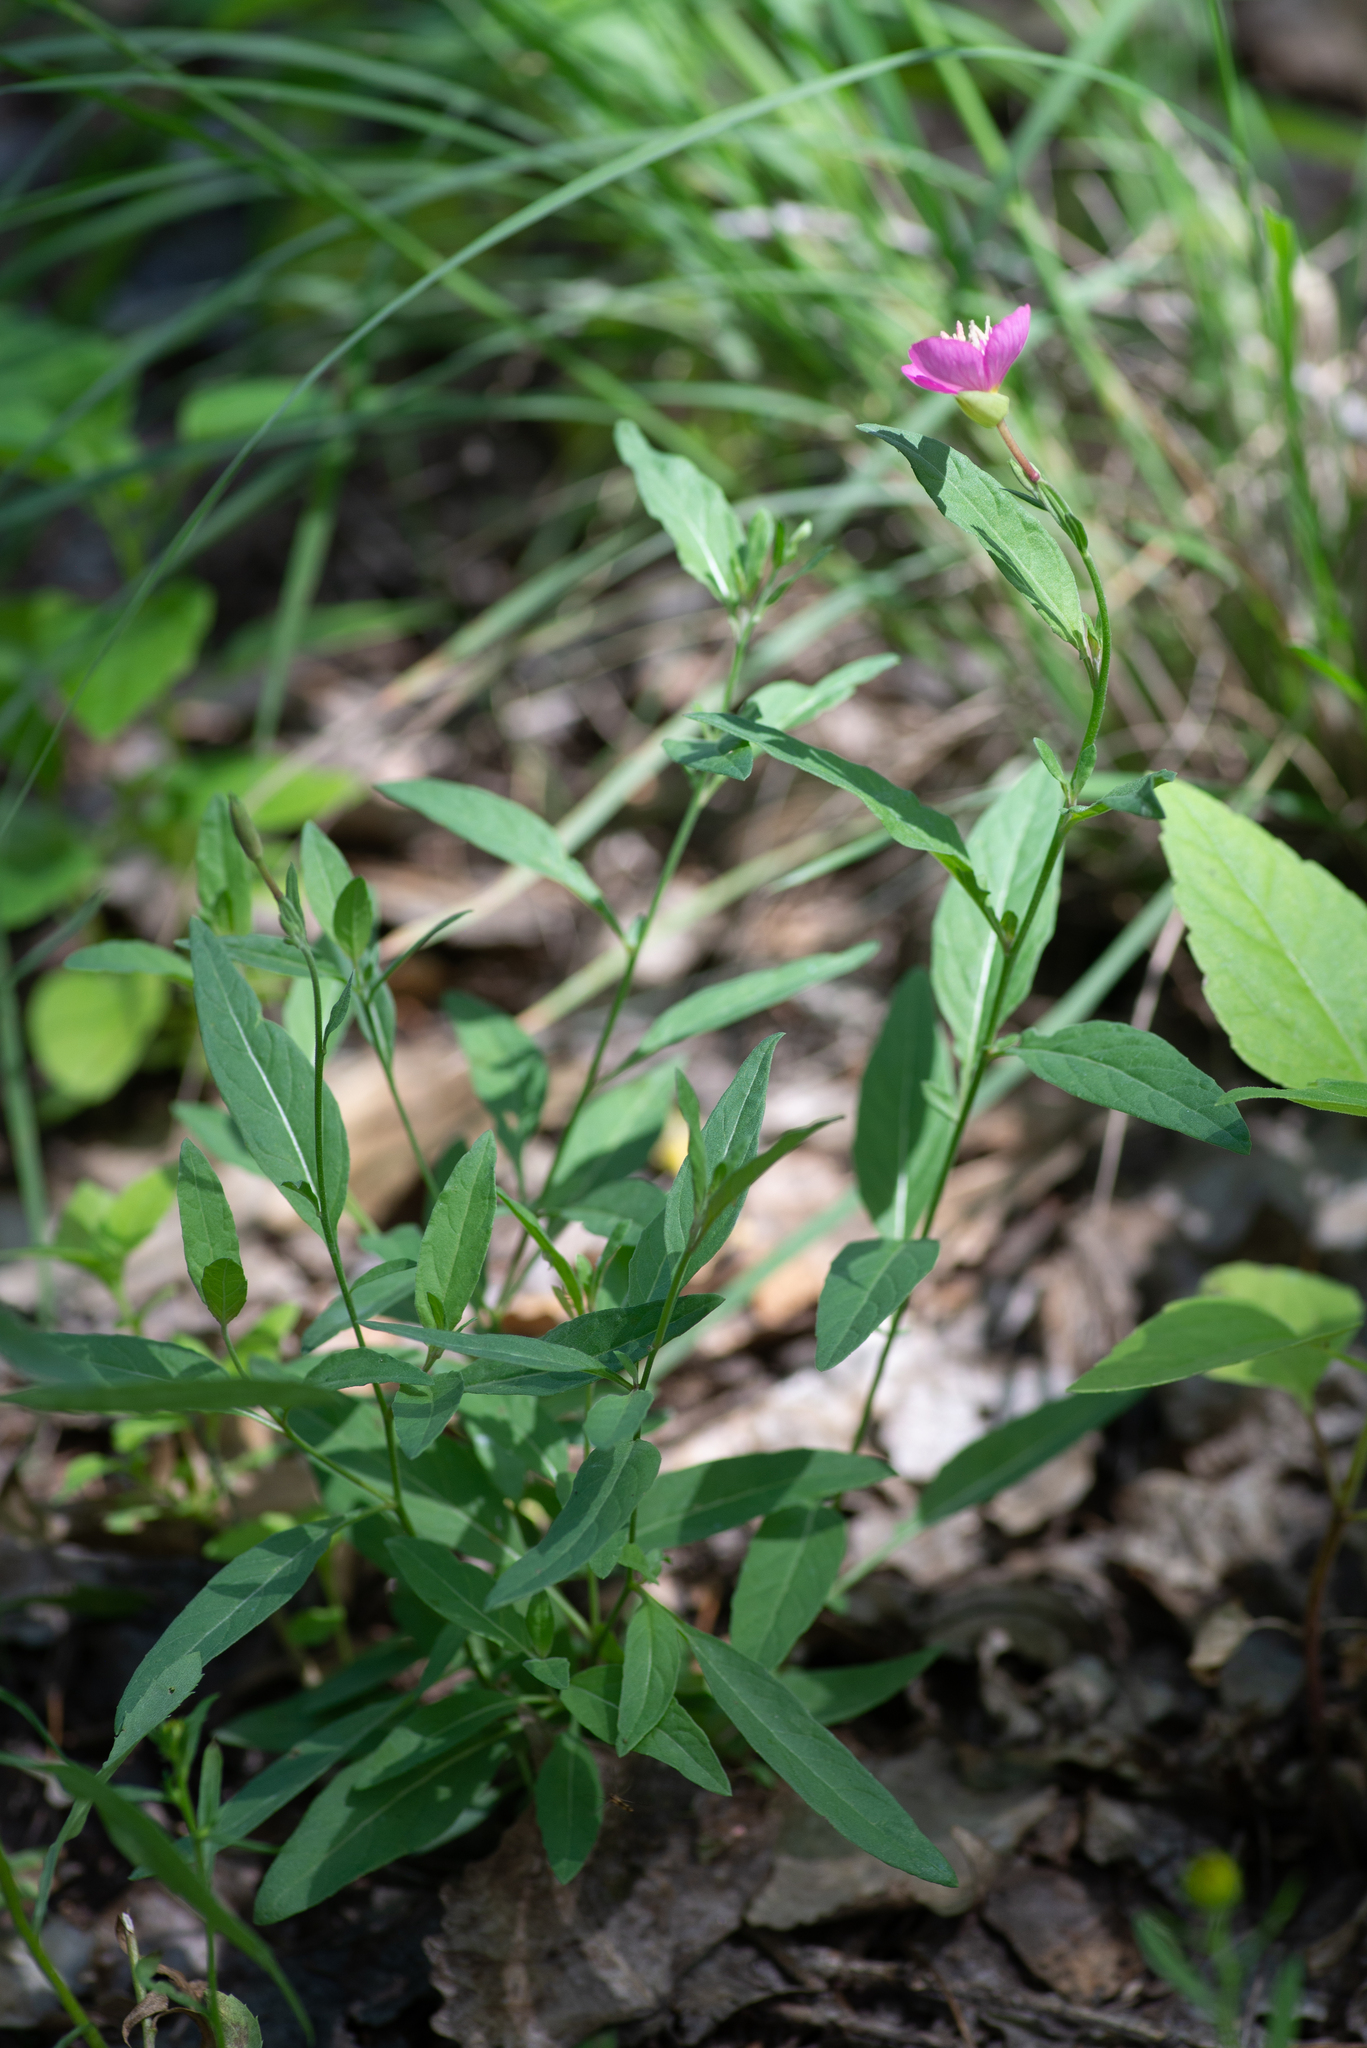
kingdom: Plantae
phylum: Tracheophyta
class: Magnoliopsida
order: Myrtales
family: Onagraceae
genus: Oenothera
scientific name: Oenothera rosea
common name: Rosy evening-primrose
